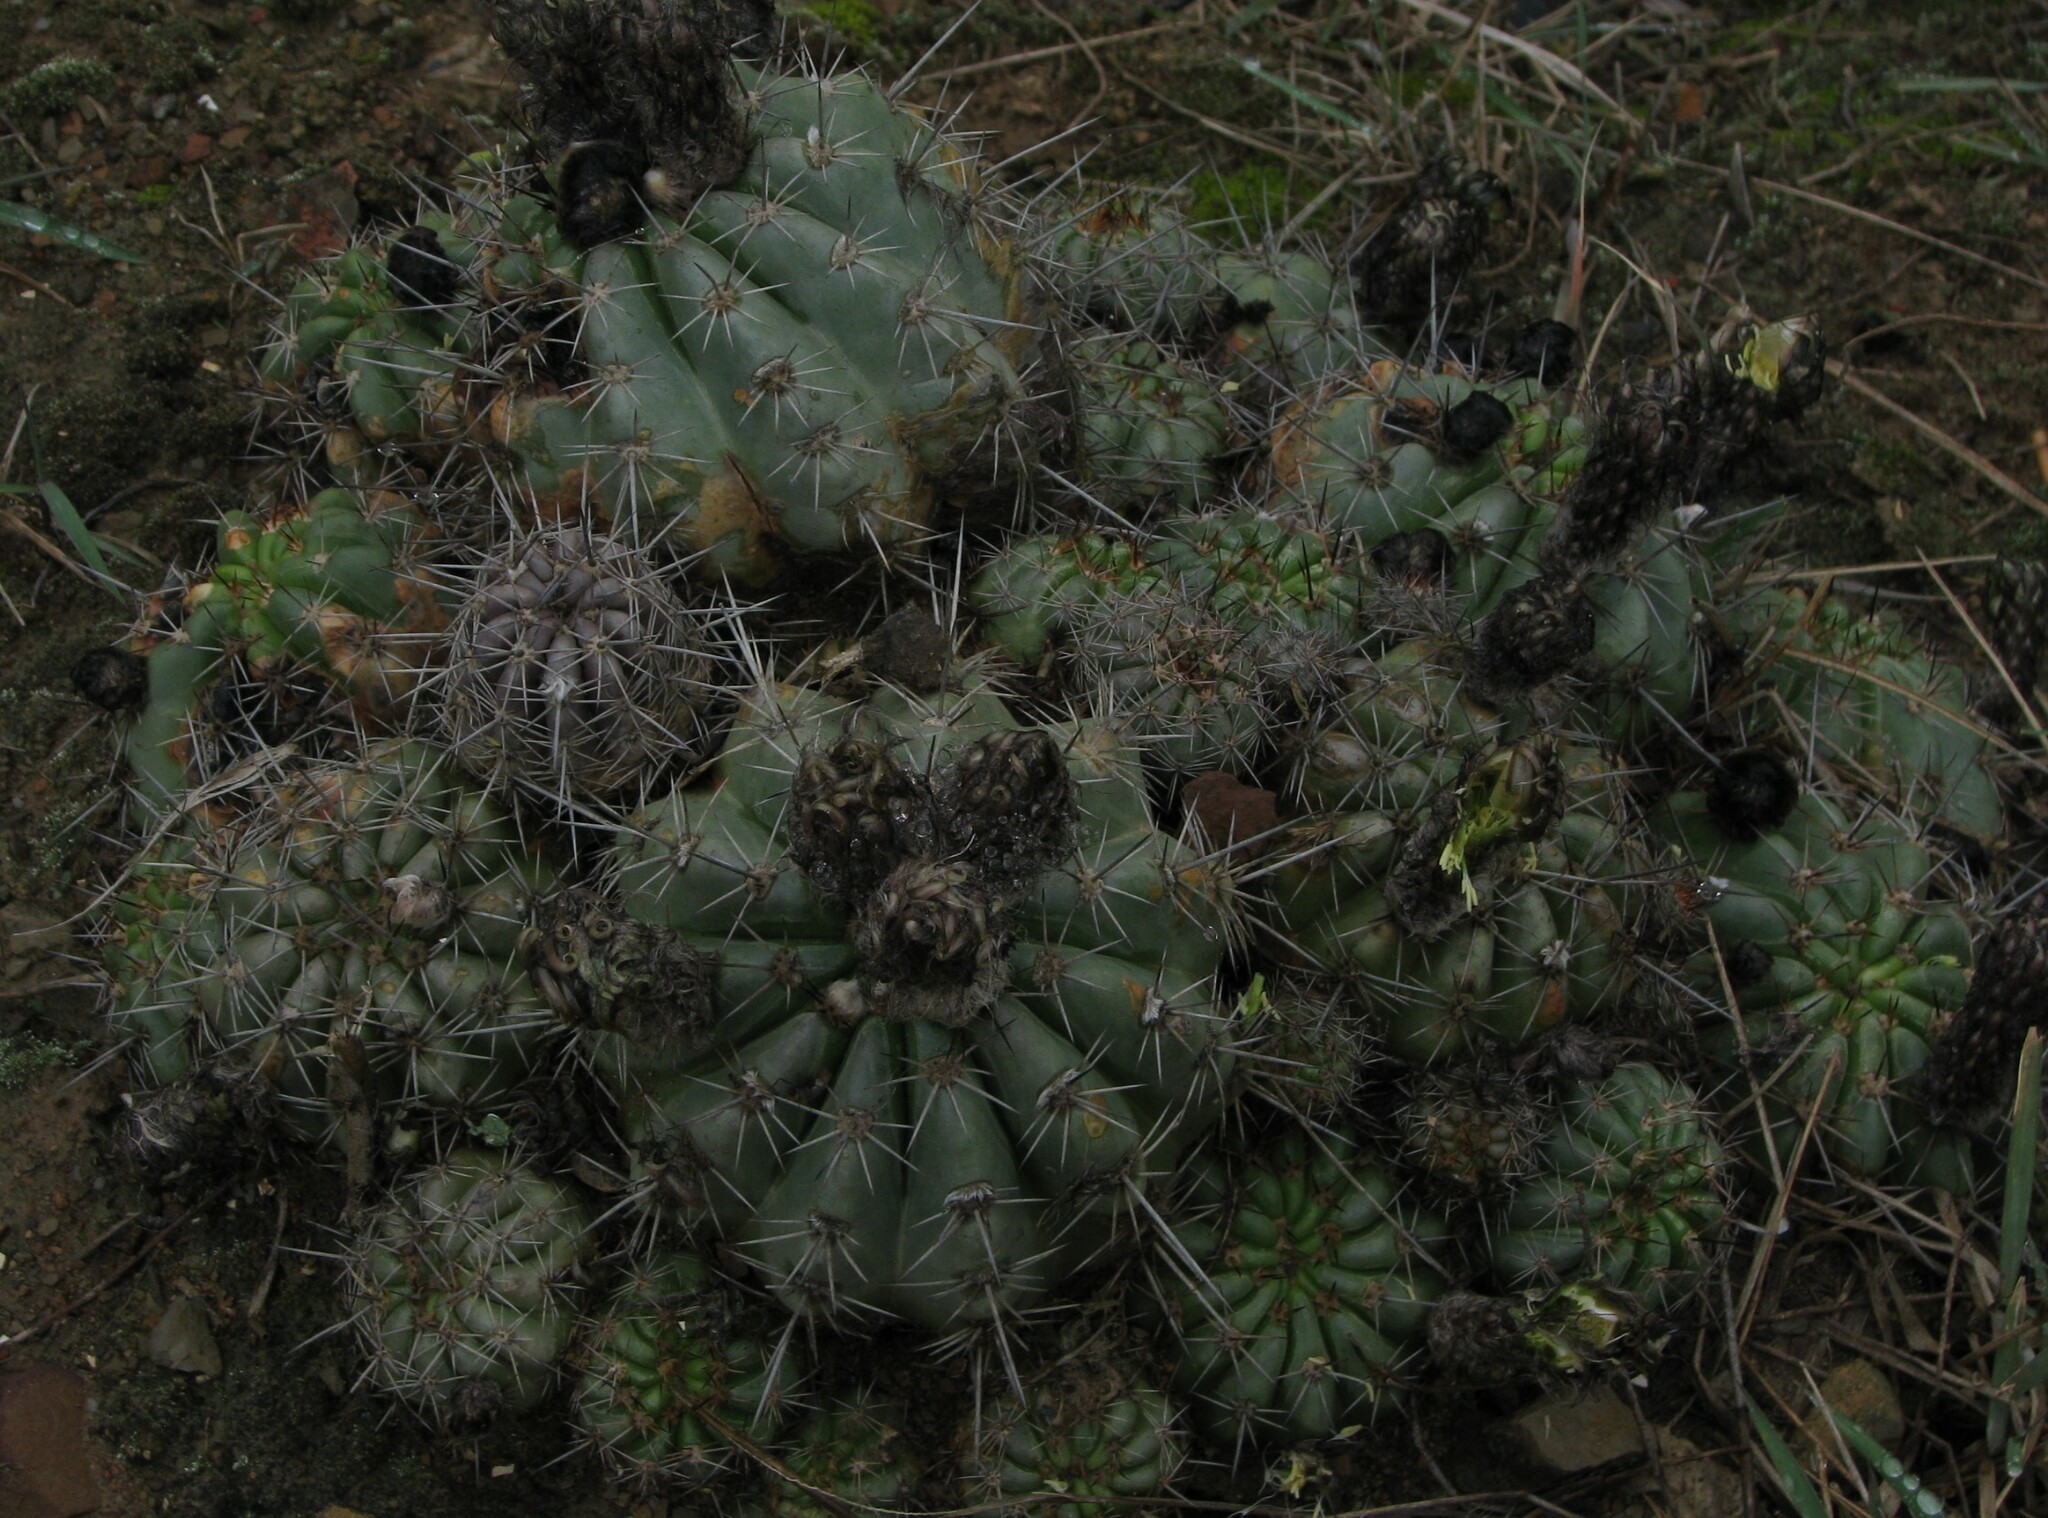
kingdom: Plantae
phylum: Tracheophyta
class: Magnoliopsida
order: Caryophyllales
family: Cactaceae
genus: Lobivia
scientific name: Lobivia bridgesii
